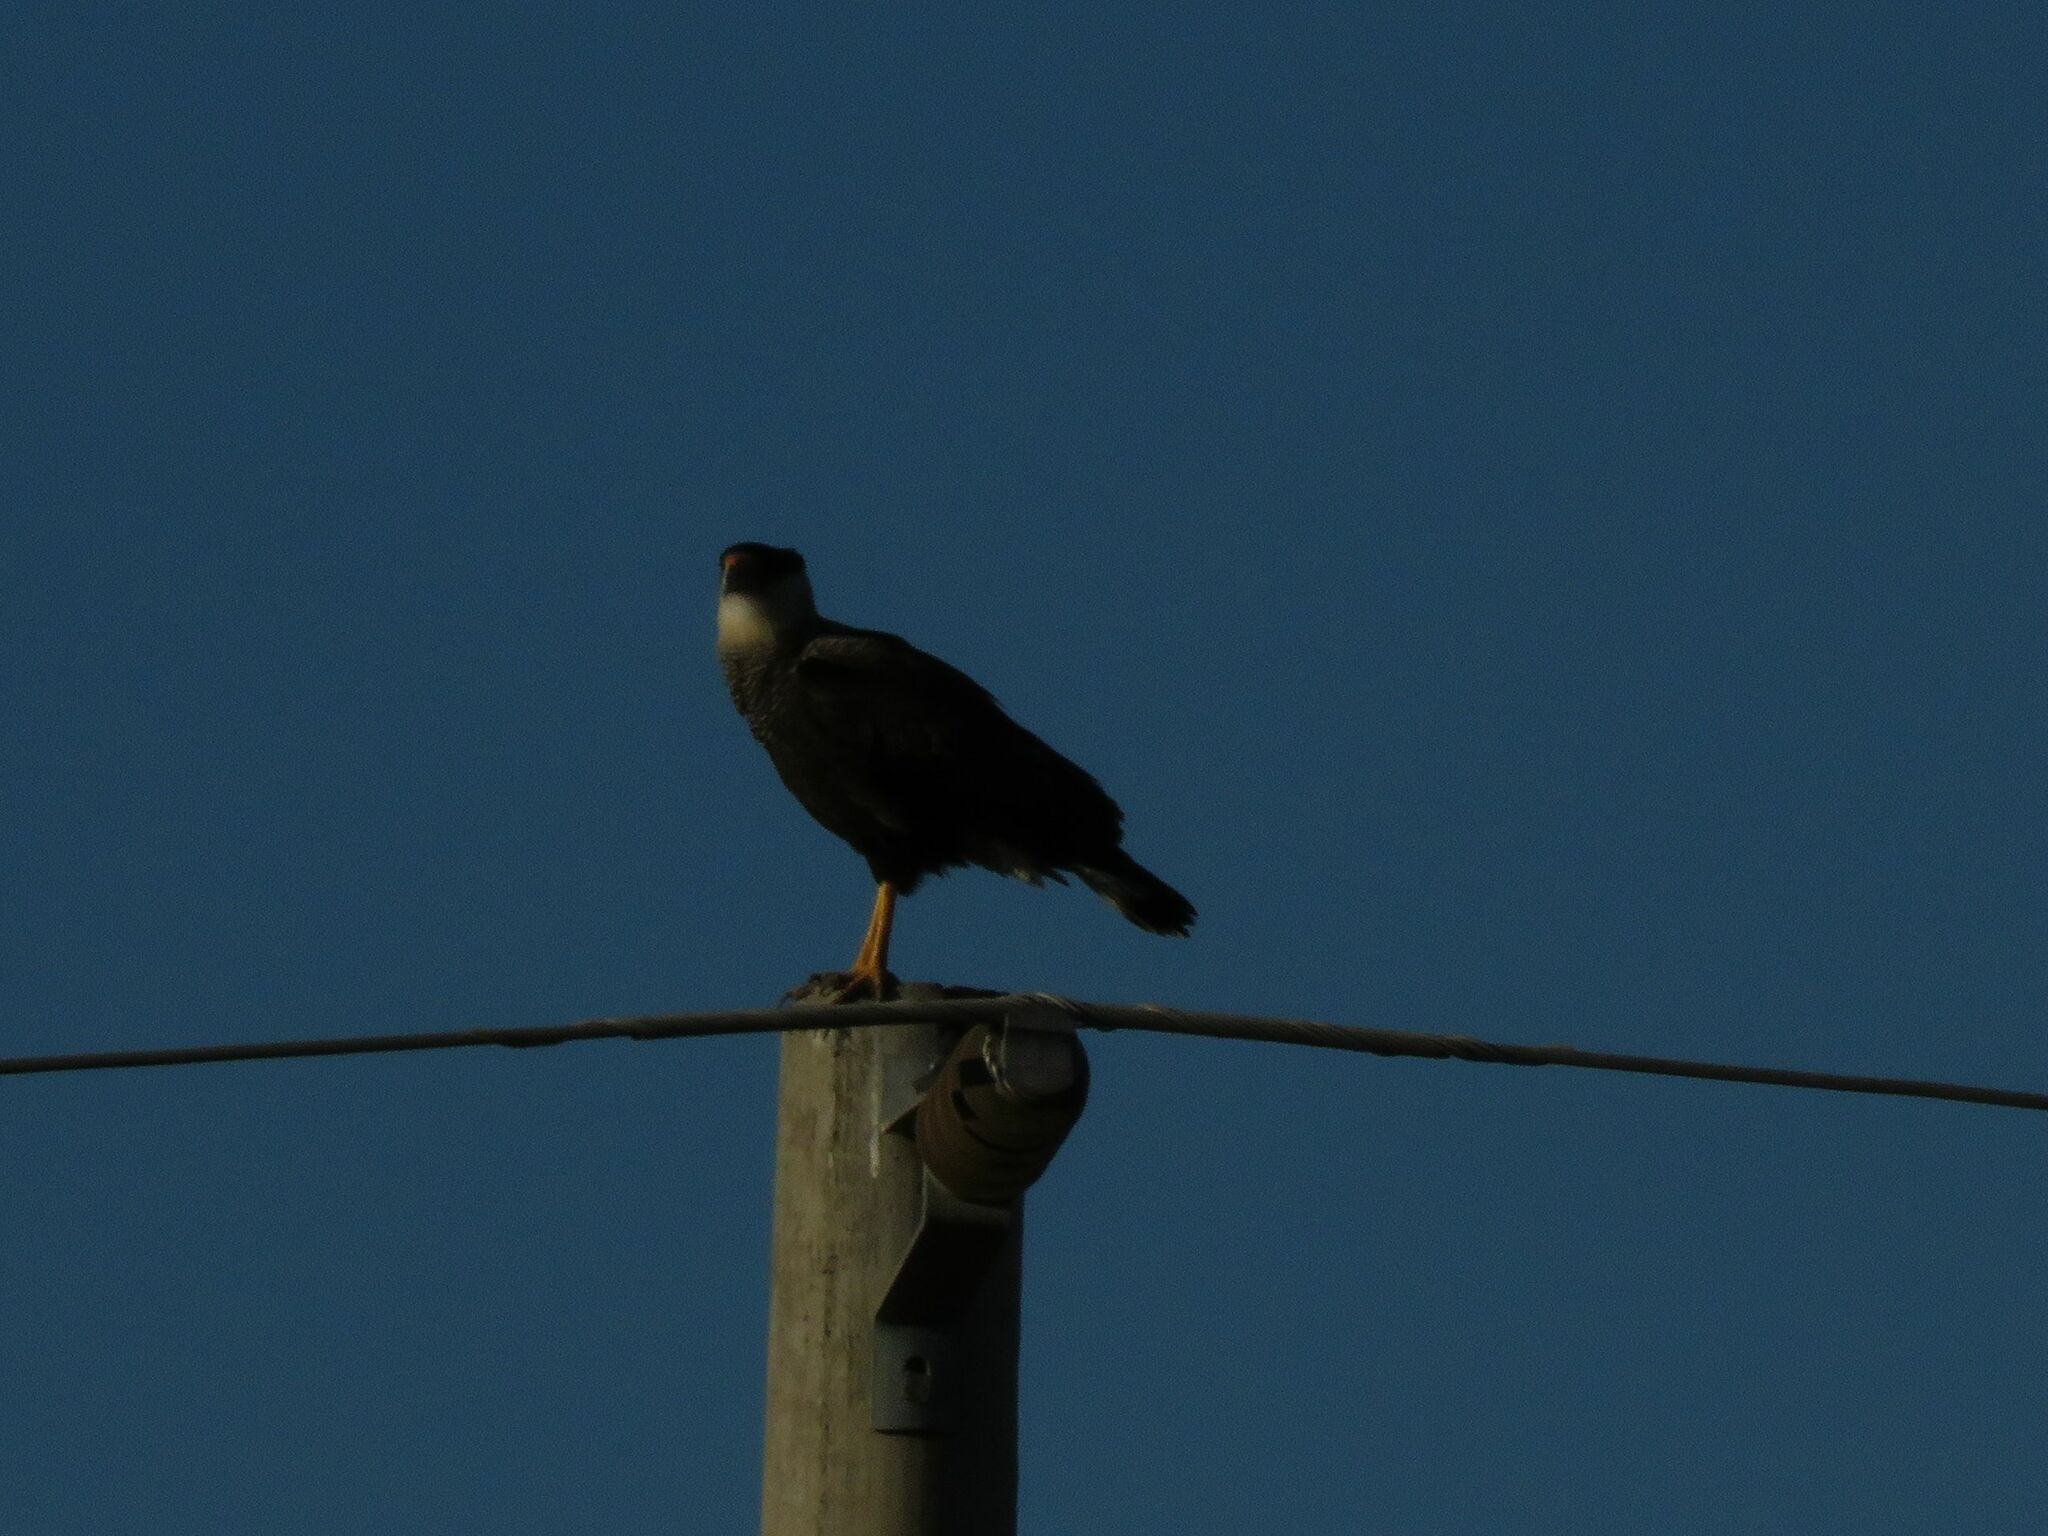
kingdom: Animalia
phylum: Chordata
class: Aves
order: Falconiformes
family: Falconidae
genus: Caracara
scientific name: Caracara plancus
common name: Southern caracara
